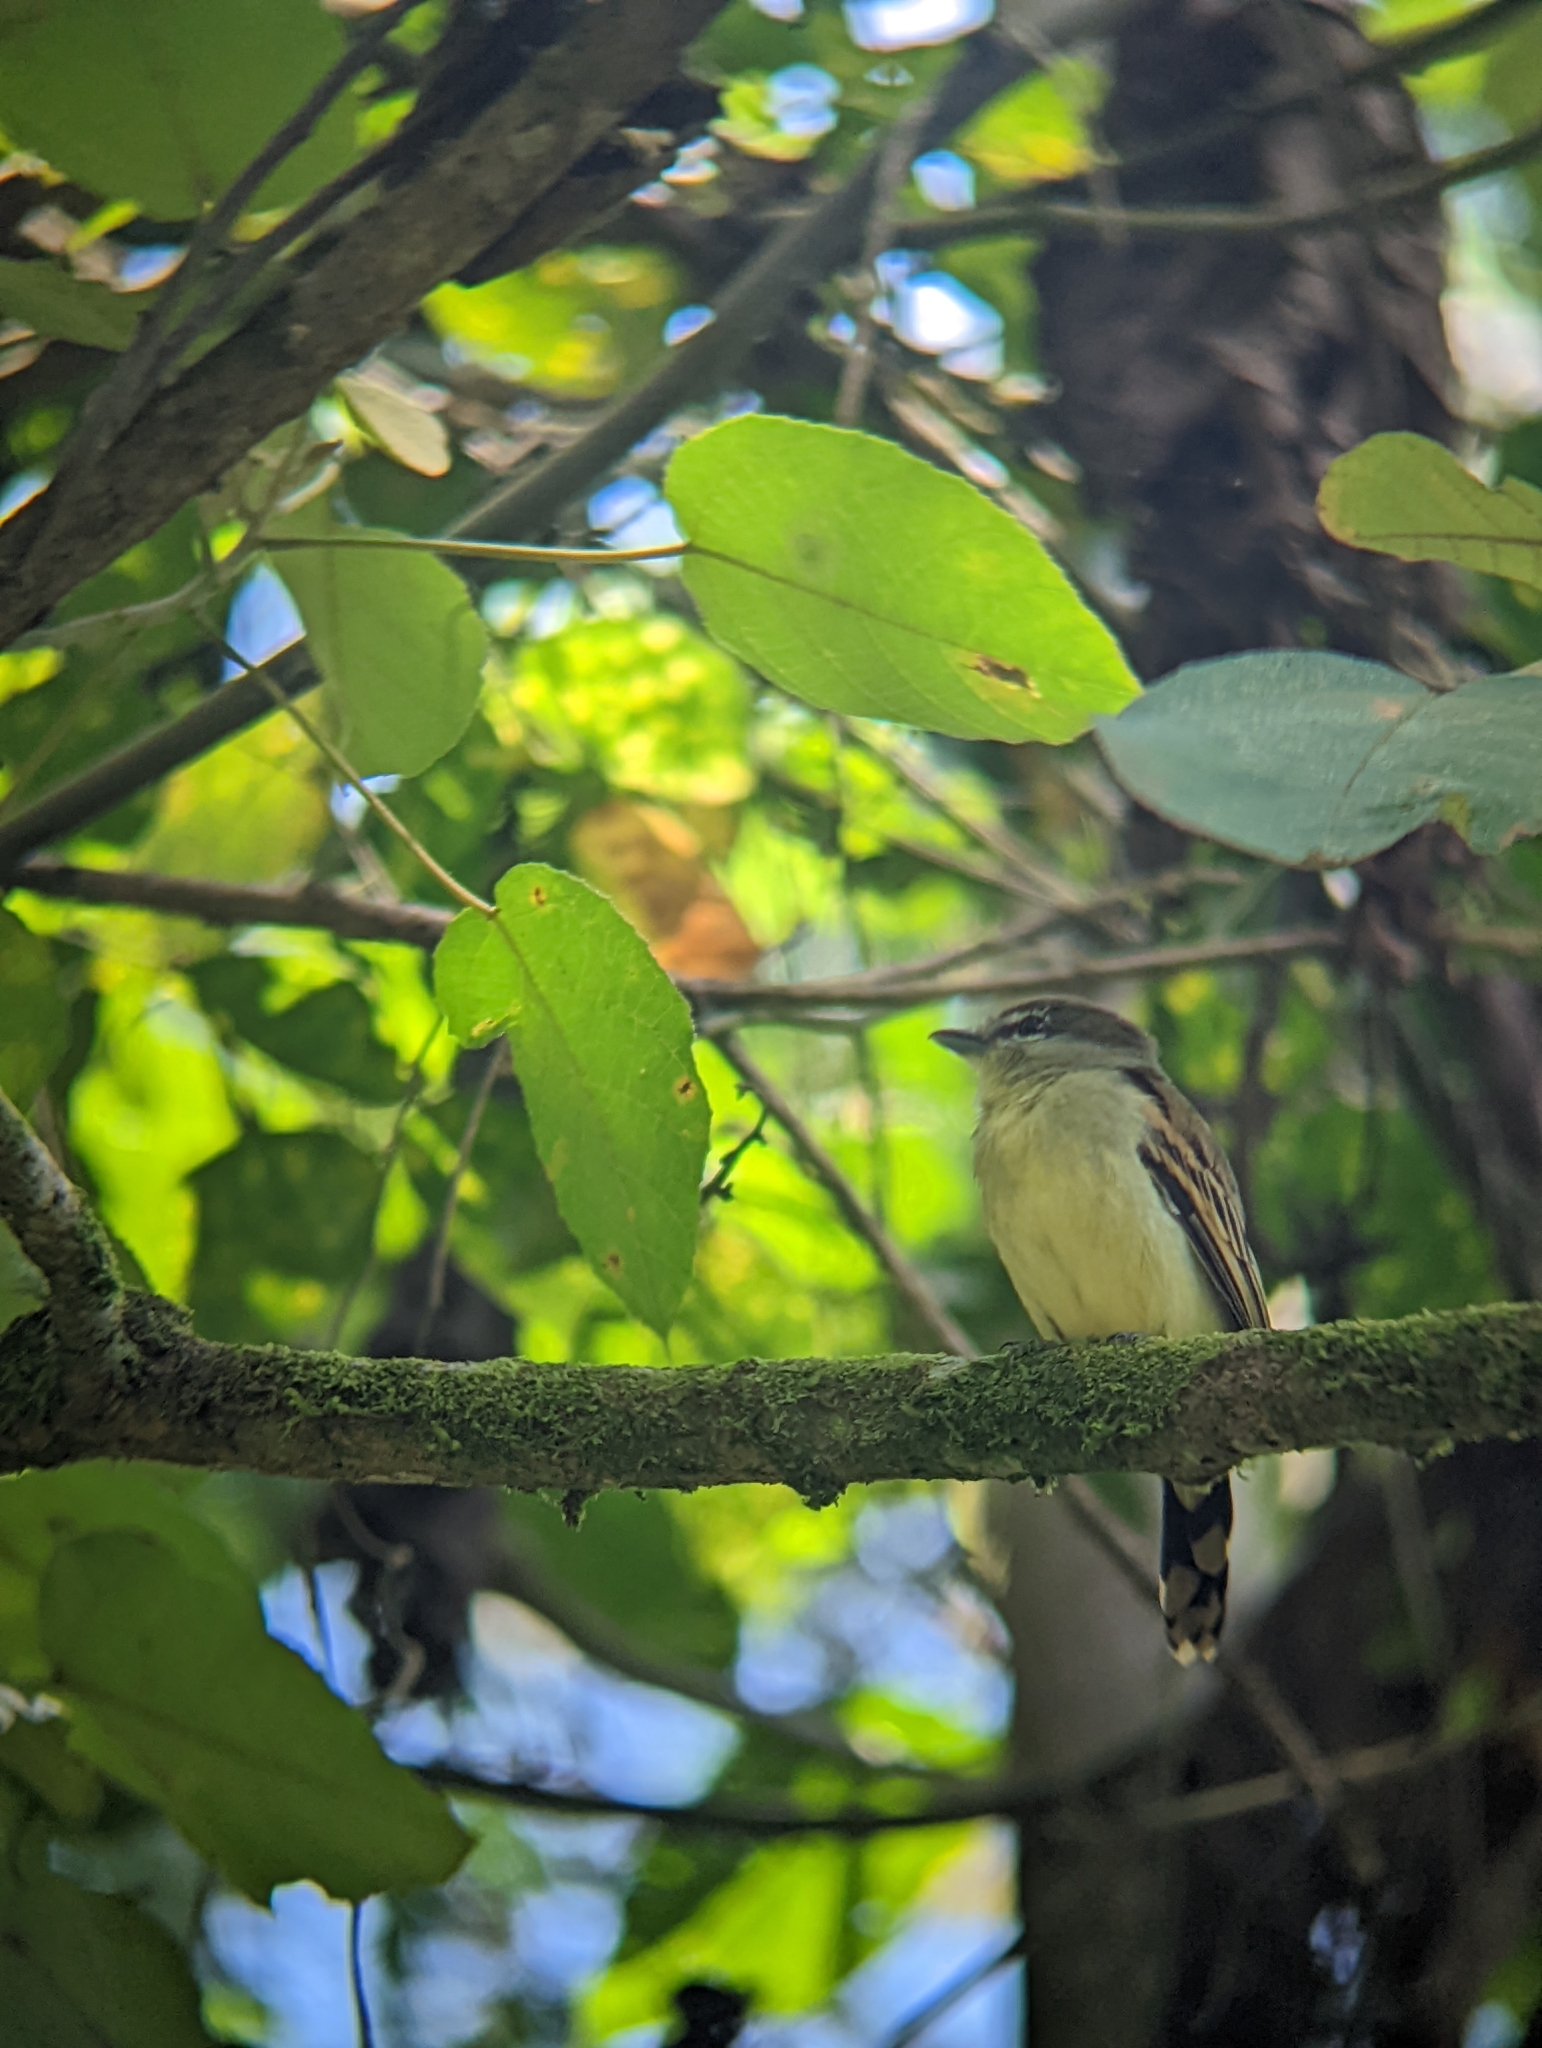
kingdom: Animalia
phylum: Chordata
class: Aves
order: Passeriformes
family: Cotingidae
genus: Pachyramphus
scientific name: Pachyramphus polychopterus
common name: White-winged becard
